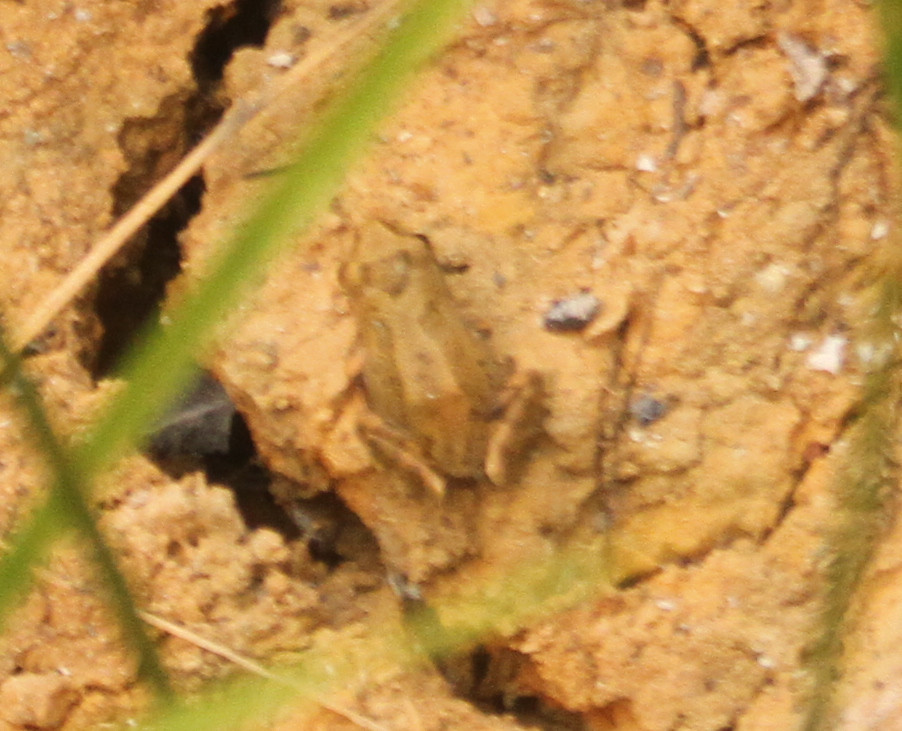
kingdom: Animalia
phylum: Chordata
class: Amphibia
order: Anura
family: Hylidae
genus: Pseudacris
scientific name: Pseudacris regilla
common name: Pacific chorus frog
